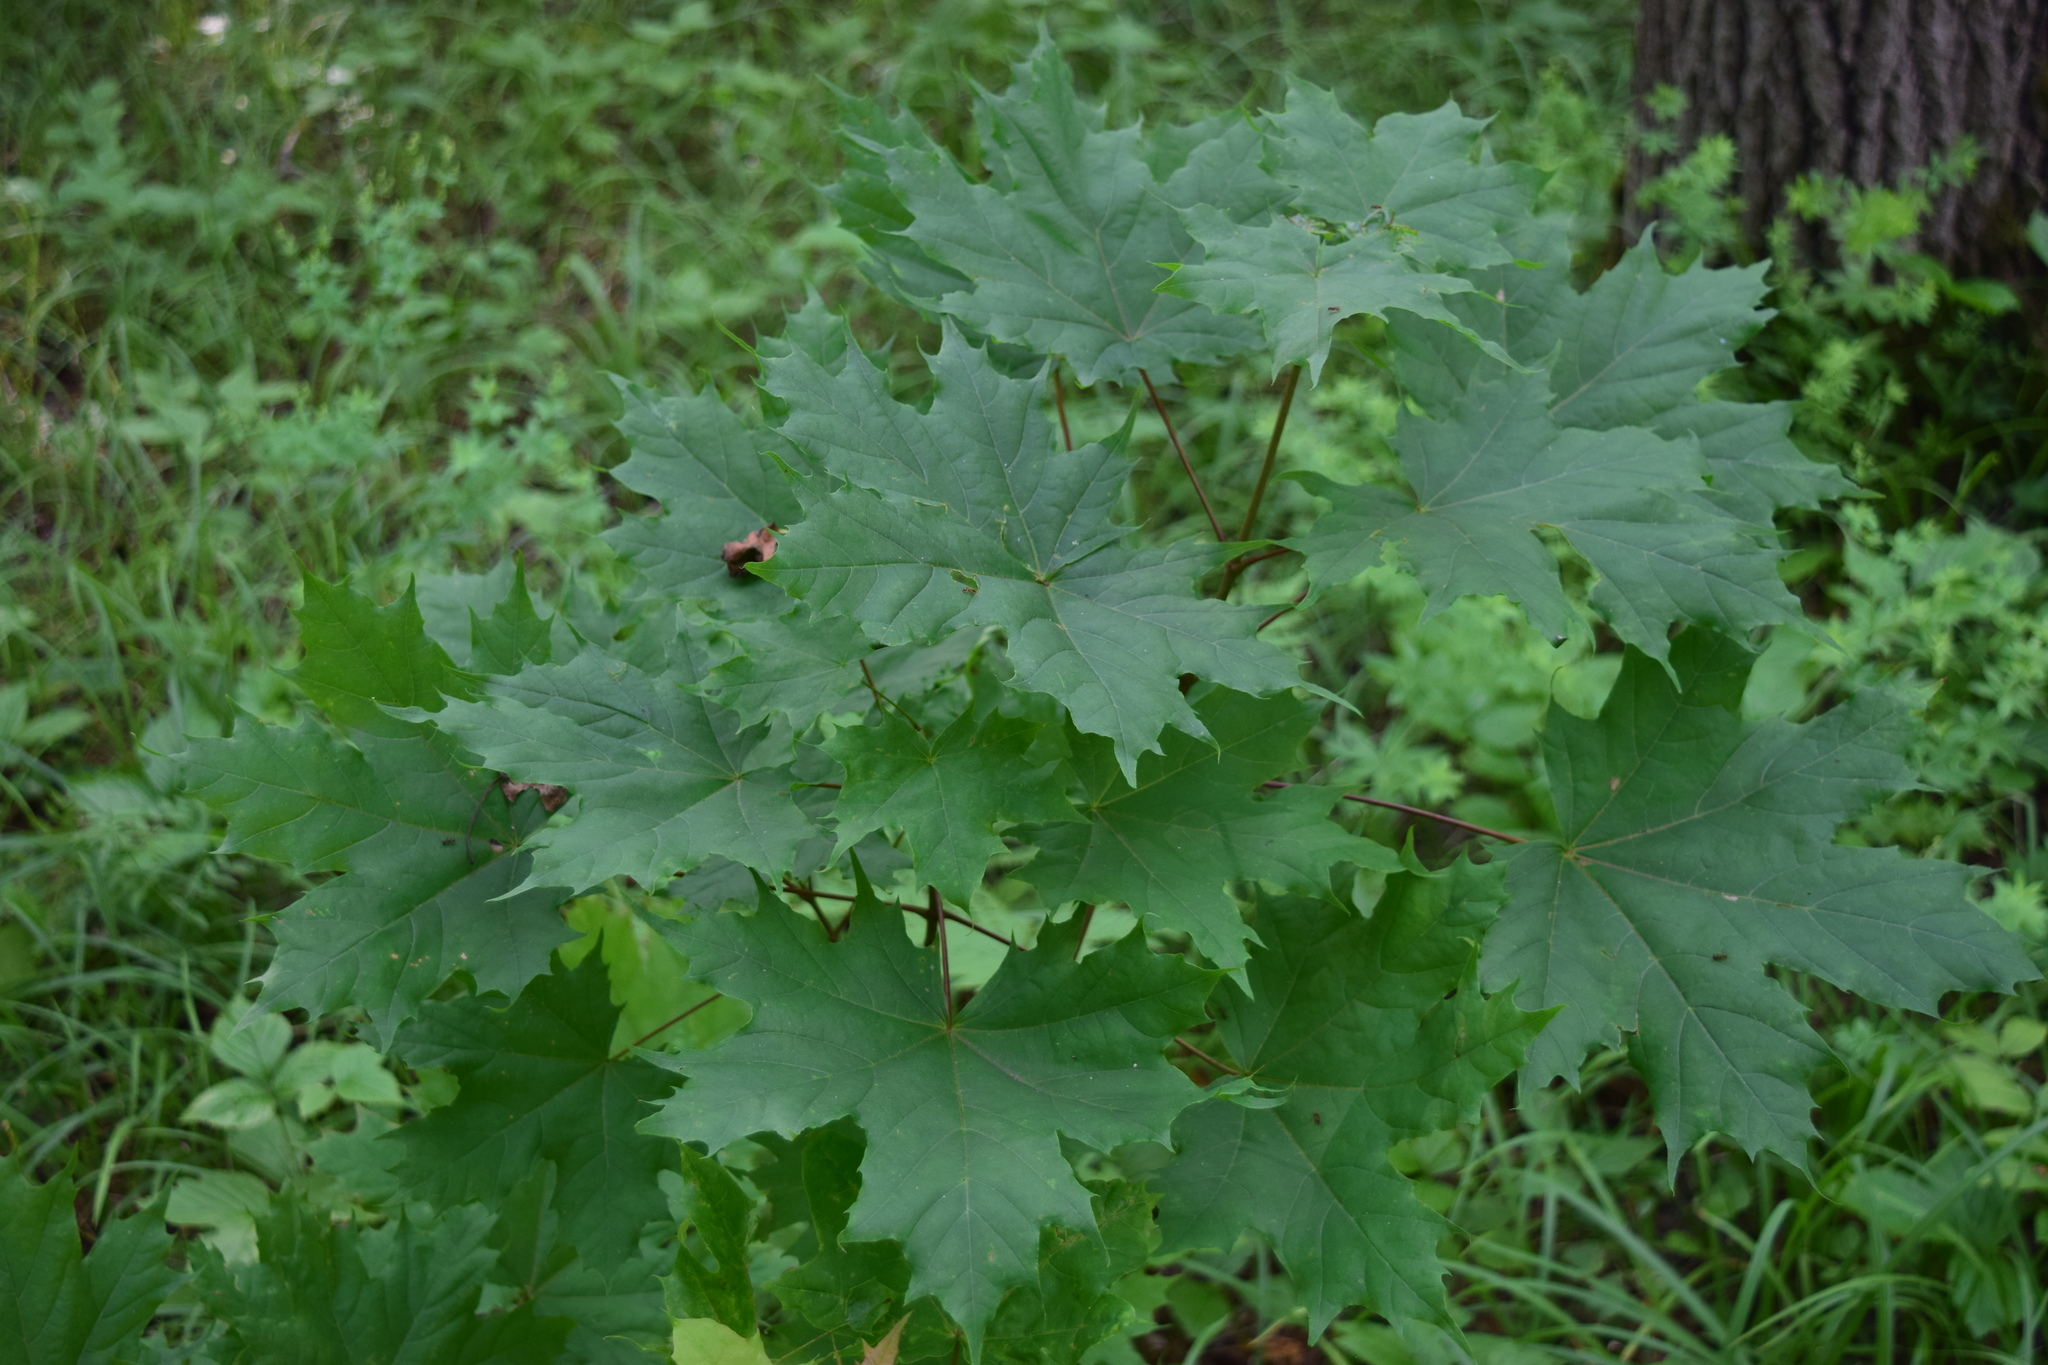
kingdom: Plantae
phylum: Tracheophyta
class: Magnoliopsida
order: Sapindales
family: Sapindaceae
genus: Acer
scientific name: Acer platanoides
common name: Norway maple
